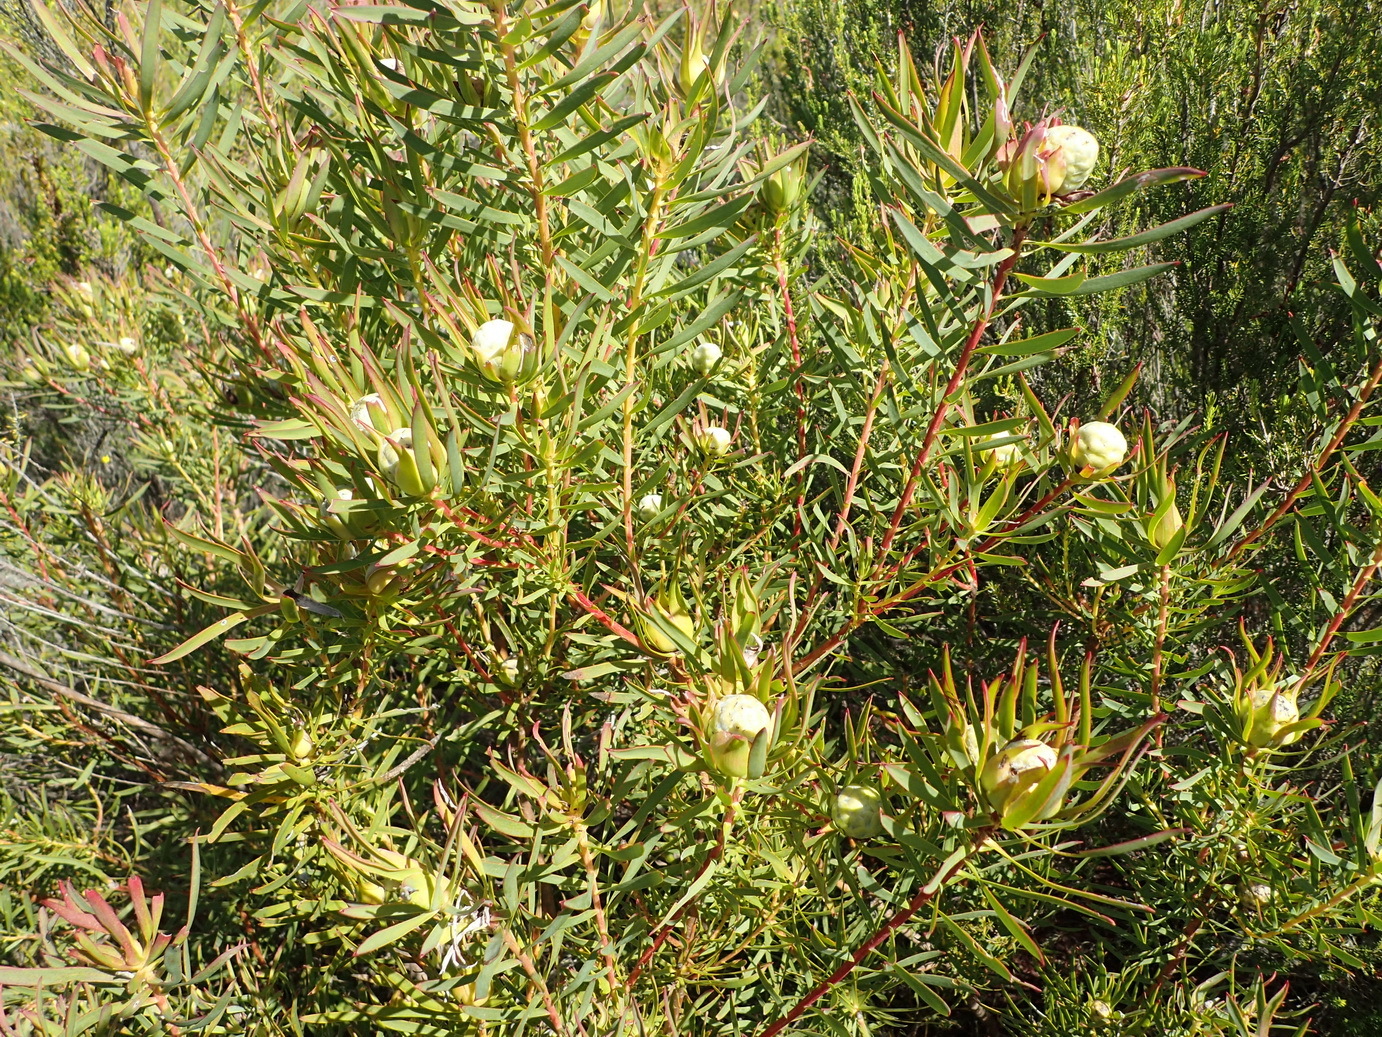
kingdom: Plantae
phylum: Tracheophyta
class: Magnoliopsida
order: Proteales
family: Proteaceae
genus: Leucadendron
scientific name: Leucadendron salignum
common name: Common sunshine conebush
